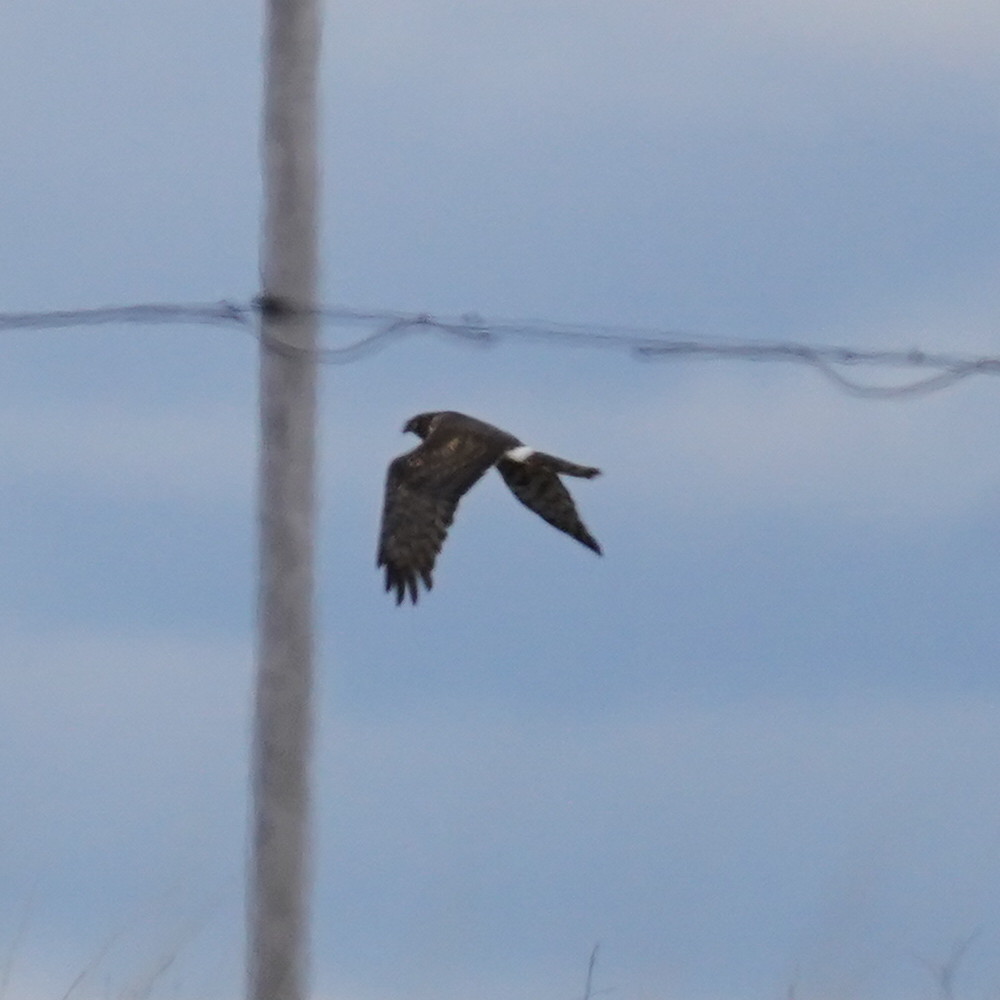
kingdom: Animalia
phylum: Chordata
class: Aves
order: Accipitriformes
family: Accipitridae
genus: Circus
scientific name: Circus cyaneus
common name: Hen harrier
